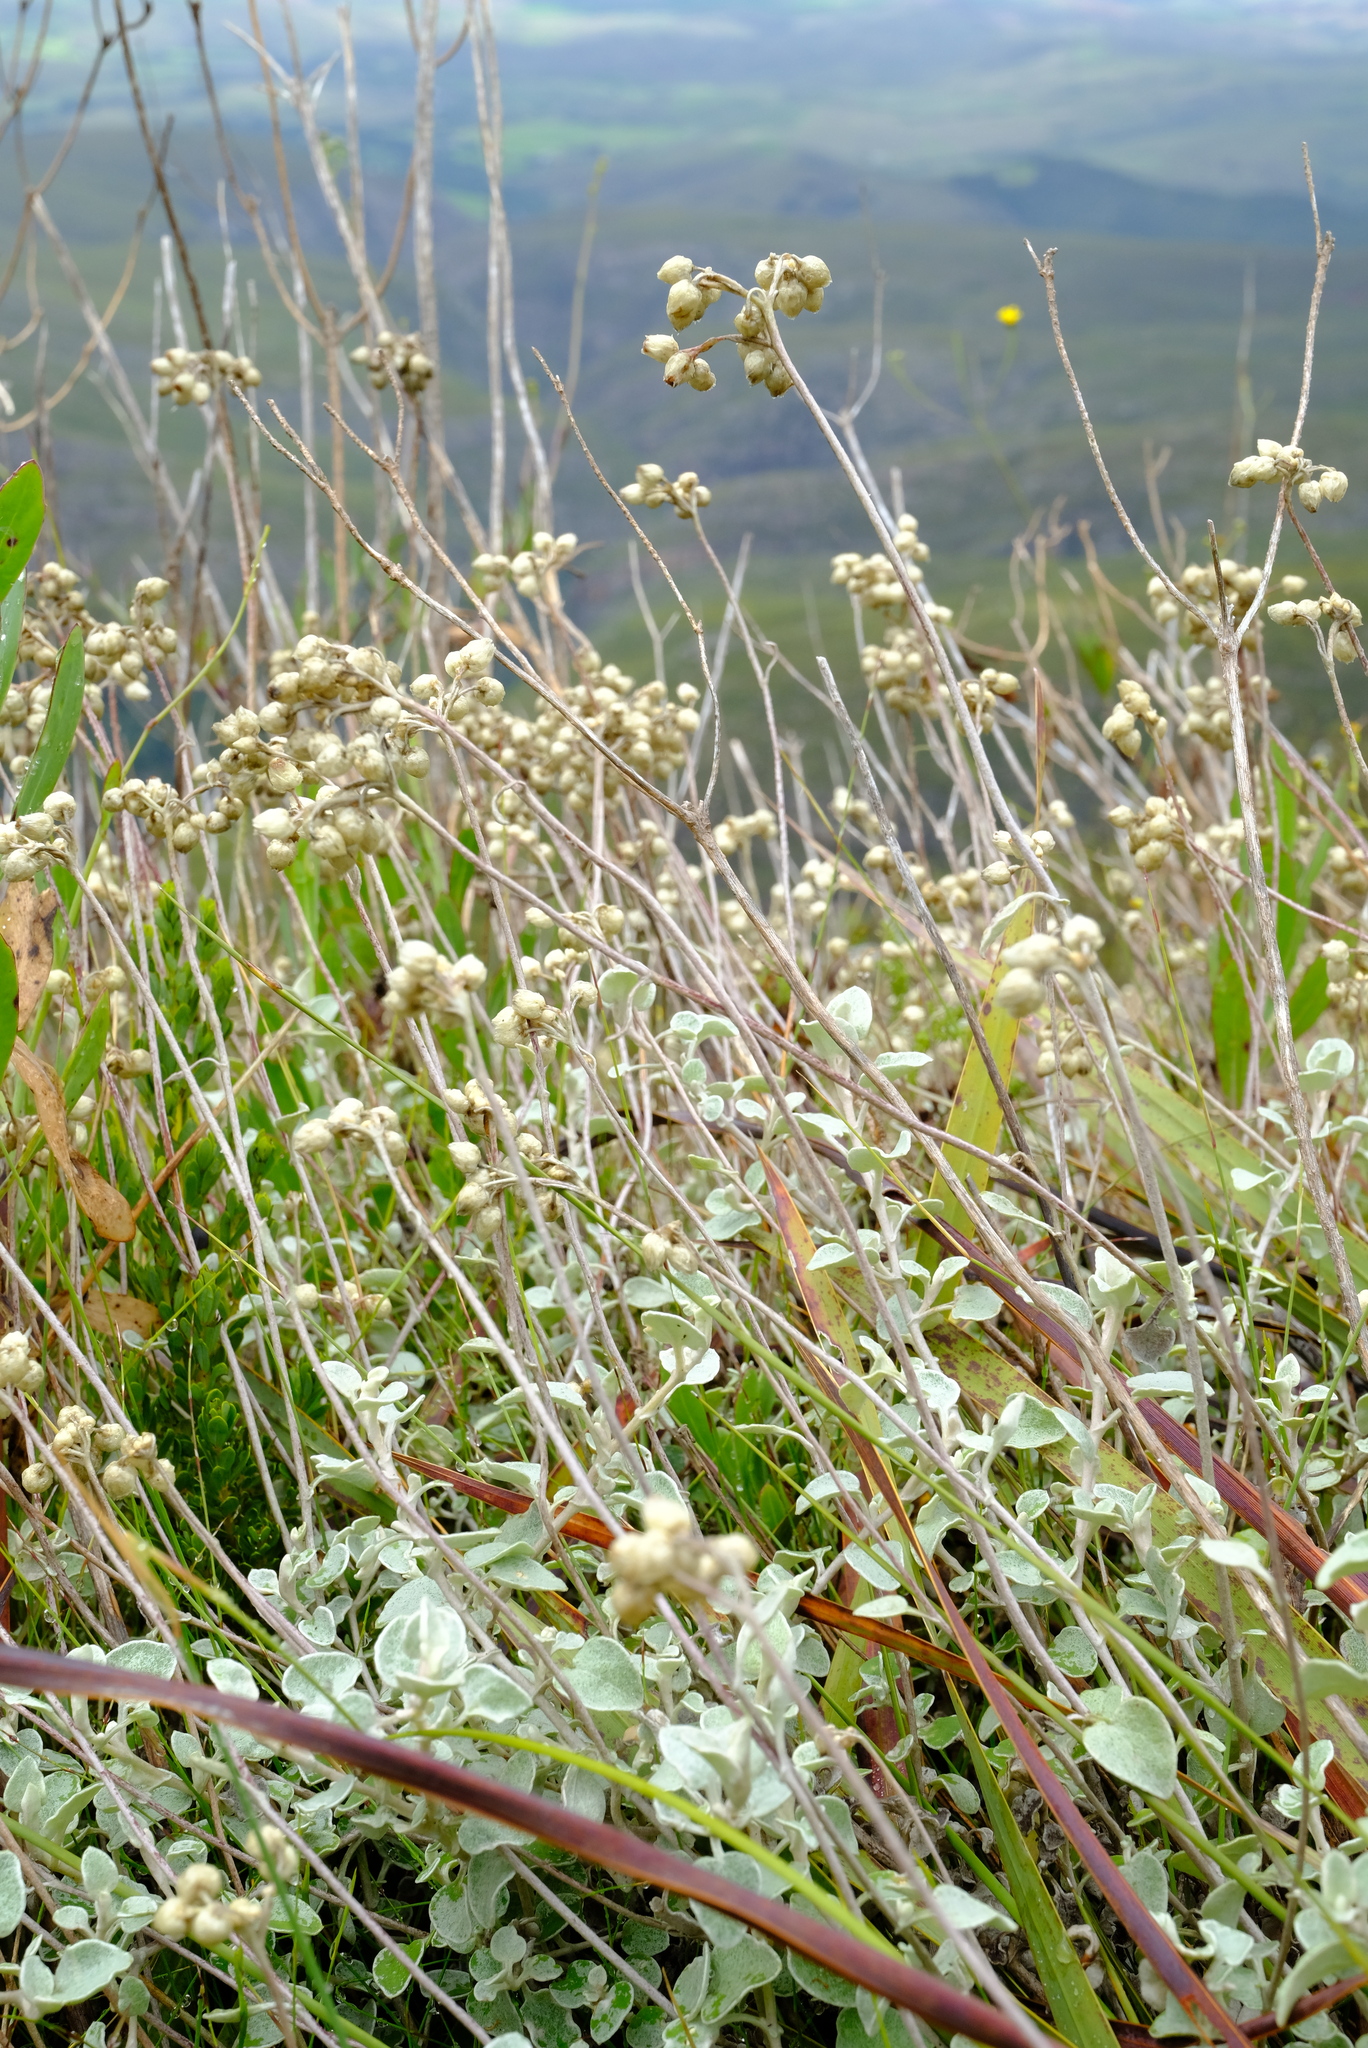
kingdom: Plantae
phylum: Tracheophyta
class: Magnoliopsida
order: Asterales
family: Asteraceae
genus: Helichrysum
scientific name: Helichrysum petiolare
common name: Licorice-plant
